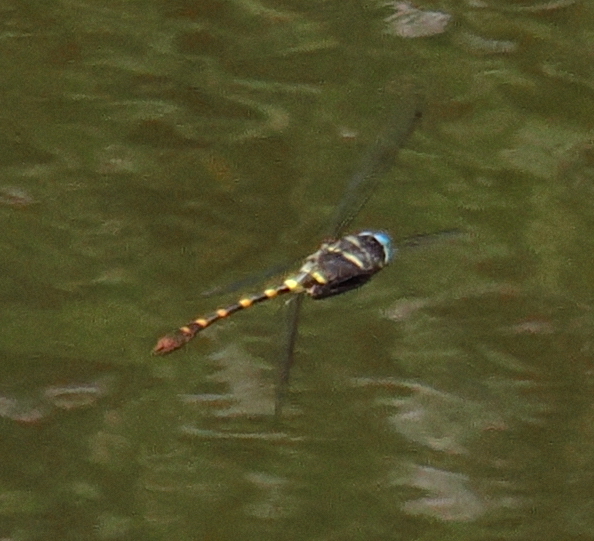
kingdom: Animalia
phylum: Arthropoda
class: Insecta
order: Odonata
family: Macromiidae
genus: Epophthalmia
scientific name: Epophthalmia frontalis
